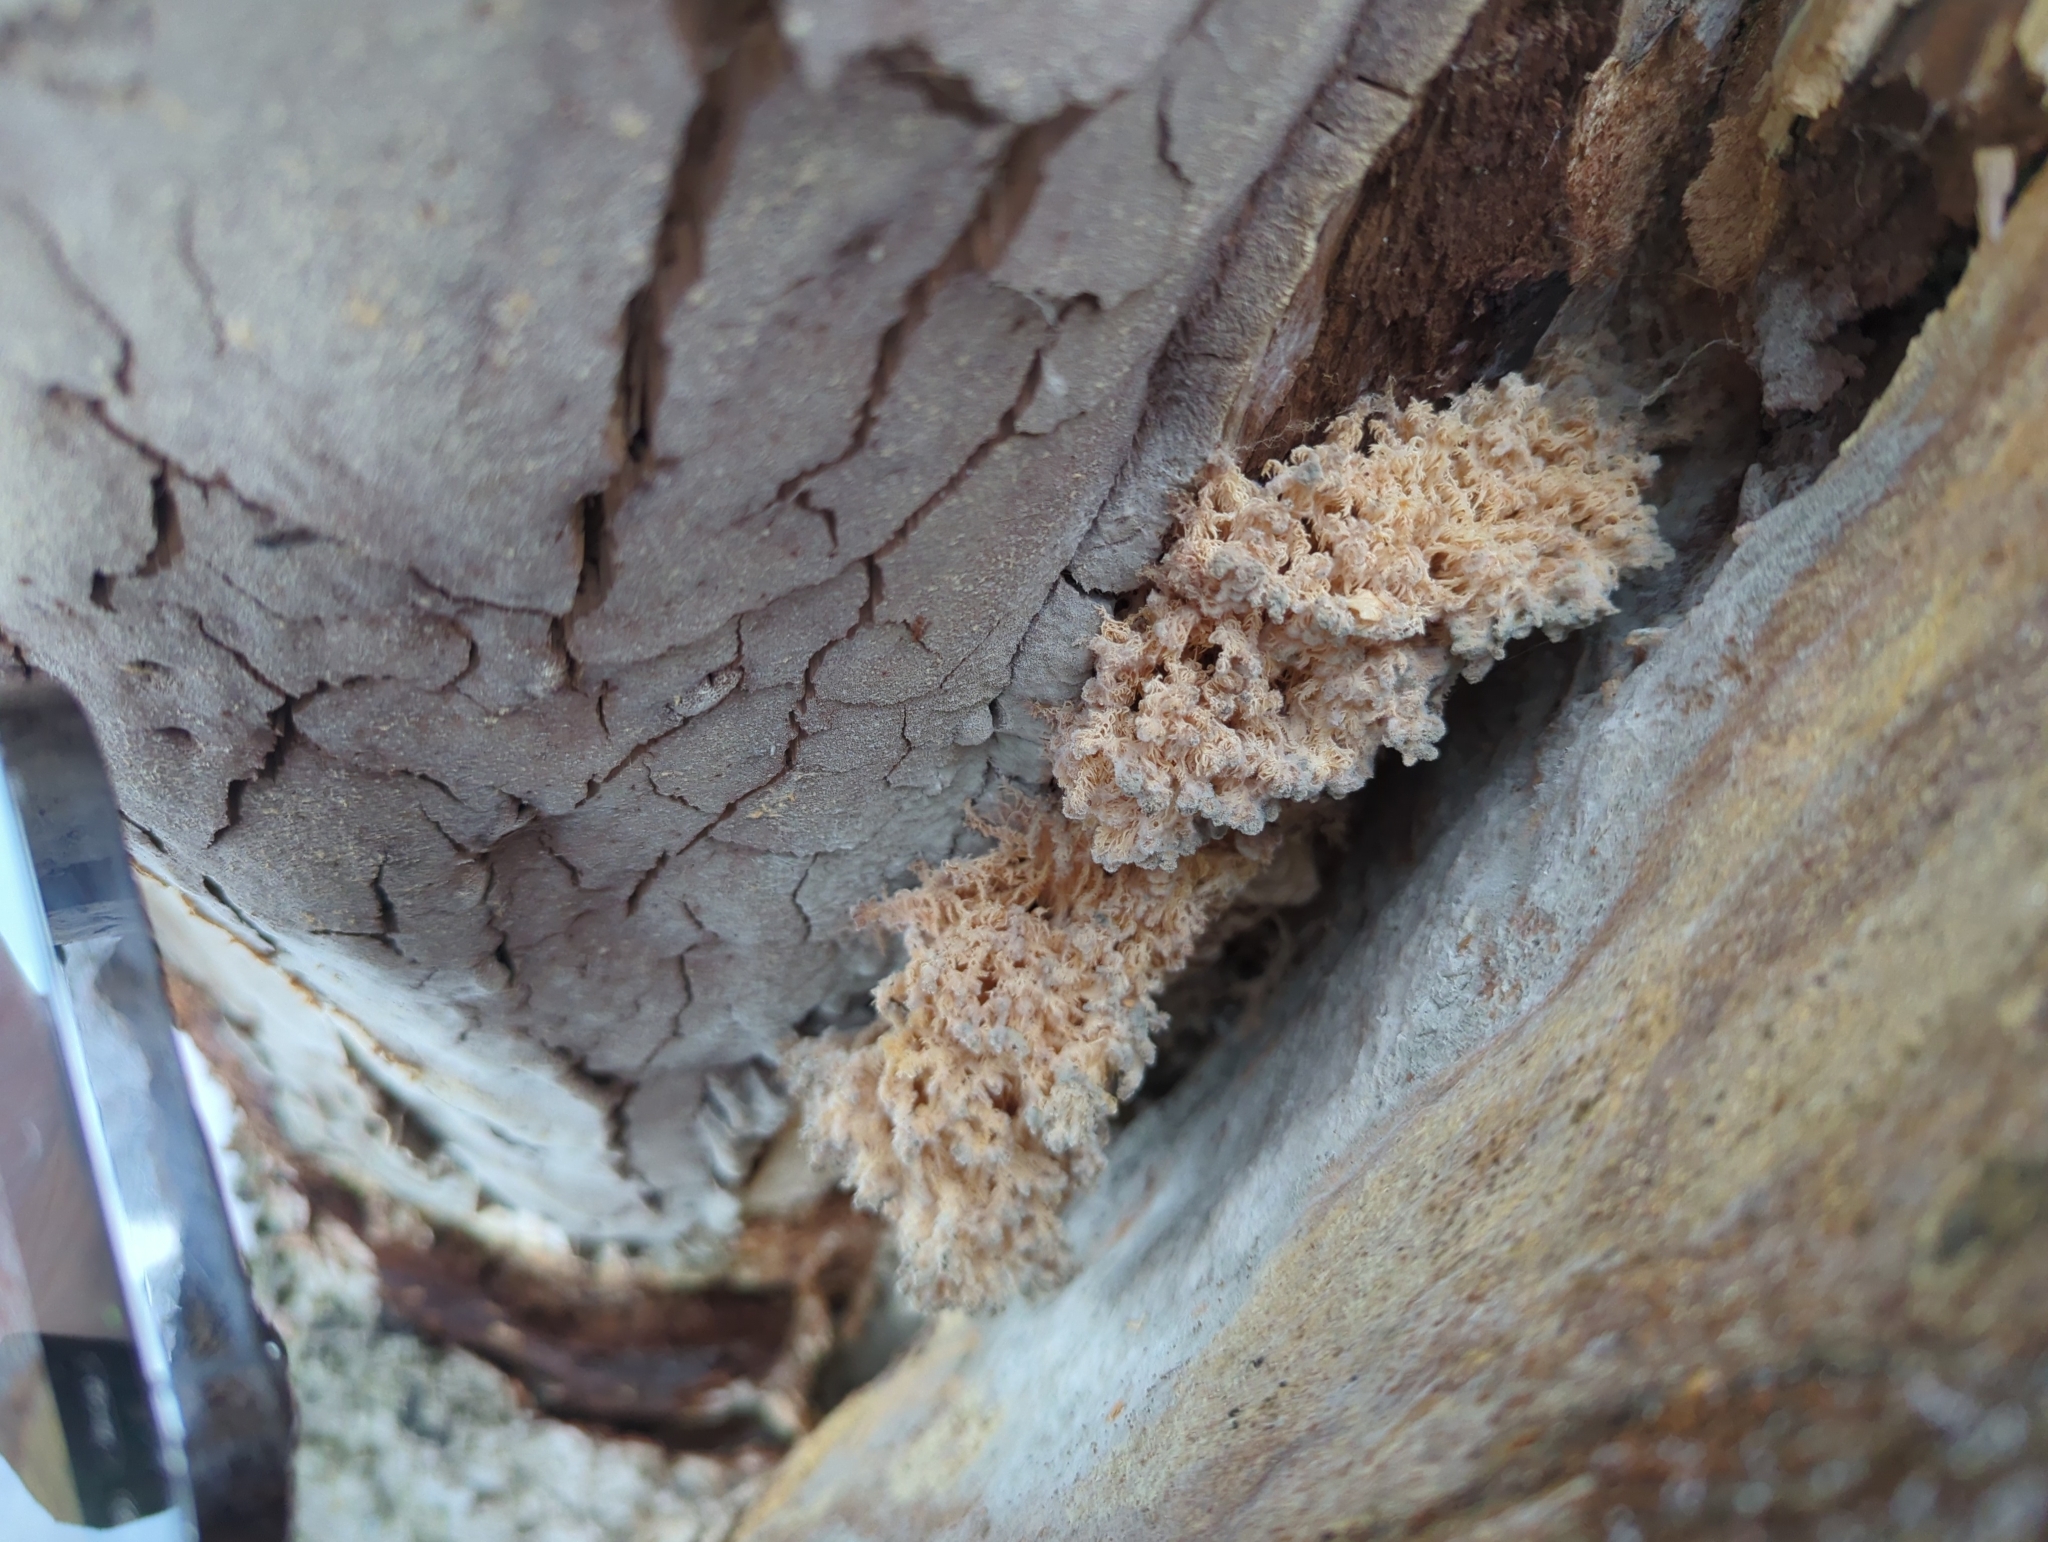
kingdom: Fungi
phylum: Basidiomycota
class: Agaricomycetes
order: Russulales
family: Hericiaceae
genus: Hericium
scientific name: Hericium coralloides
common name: Coral tooth
